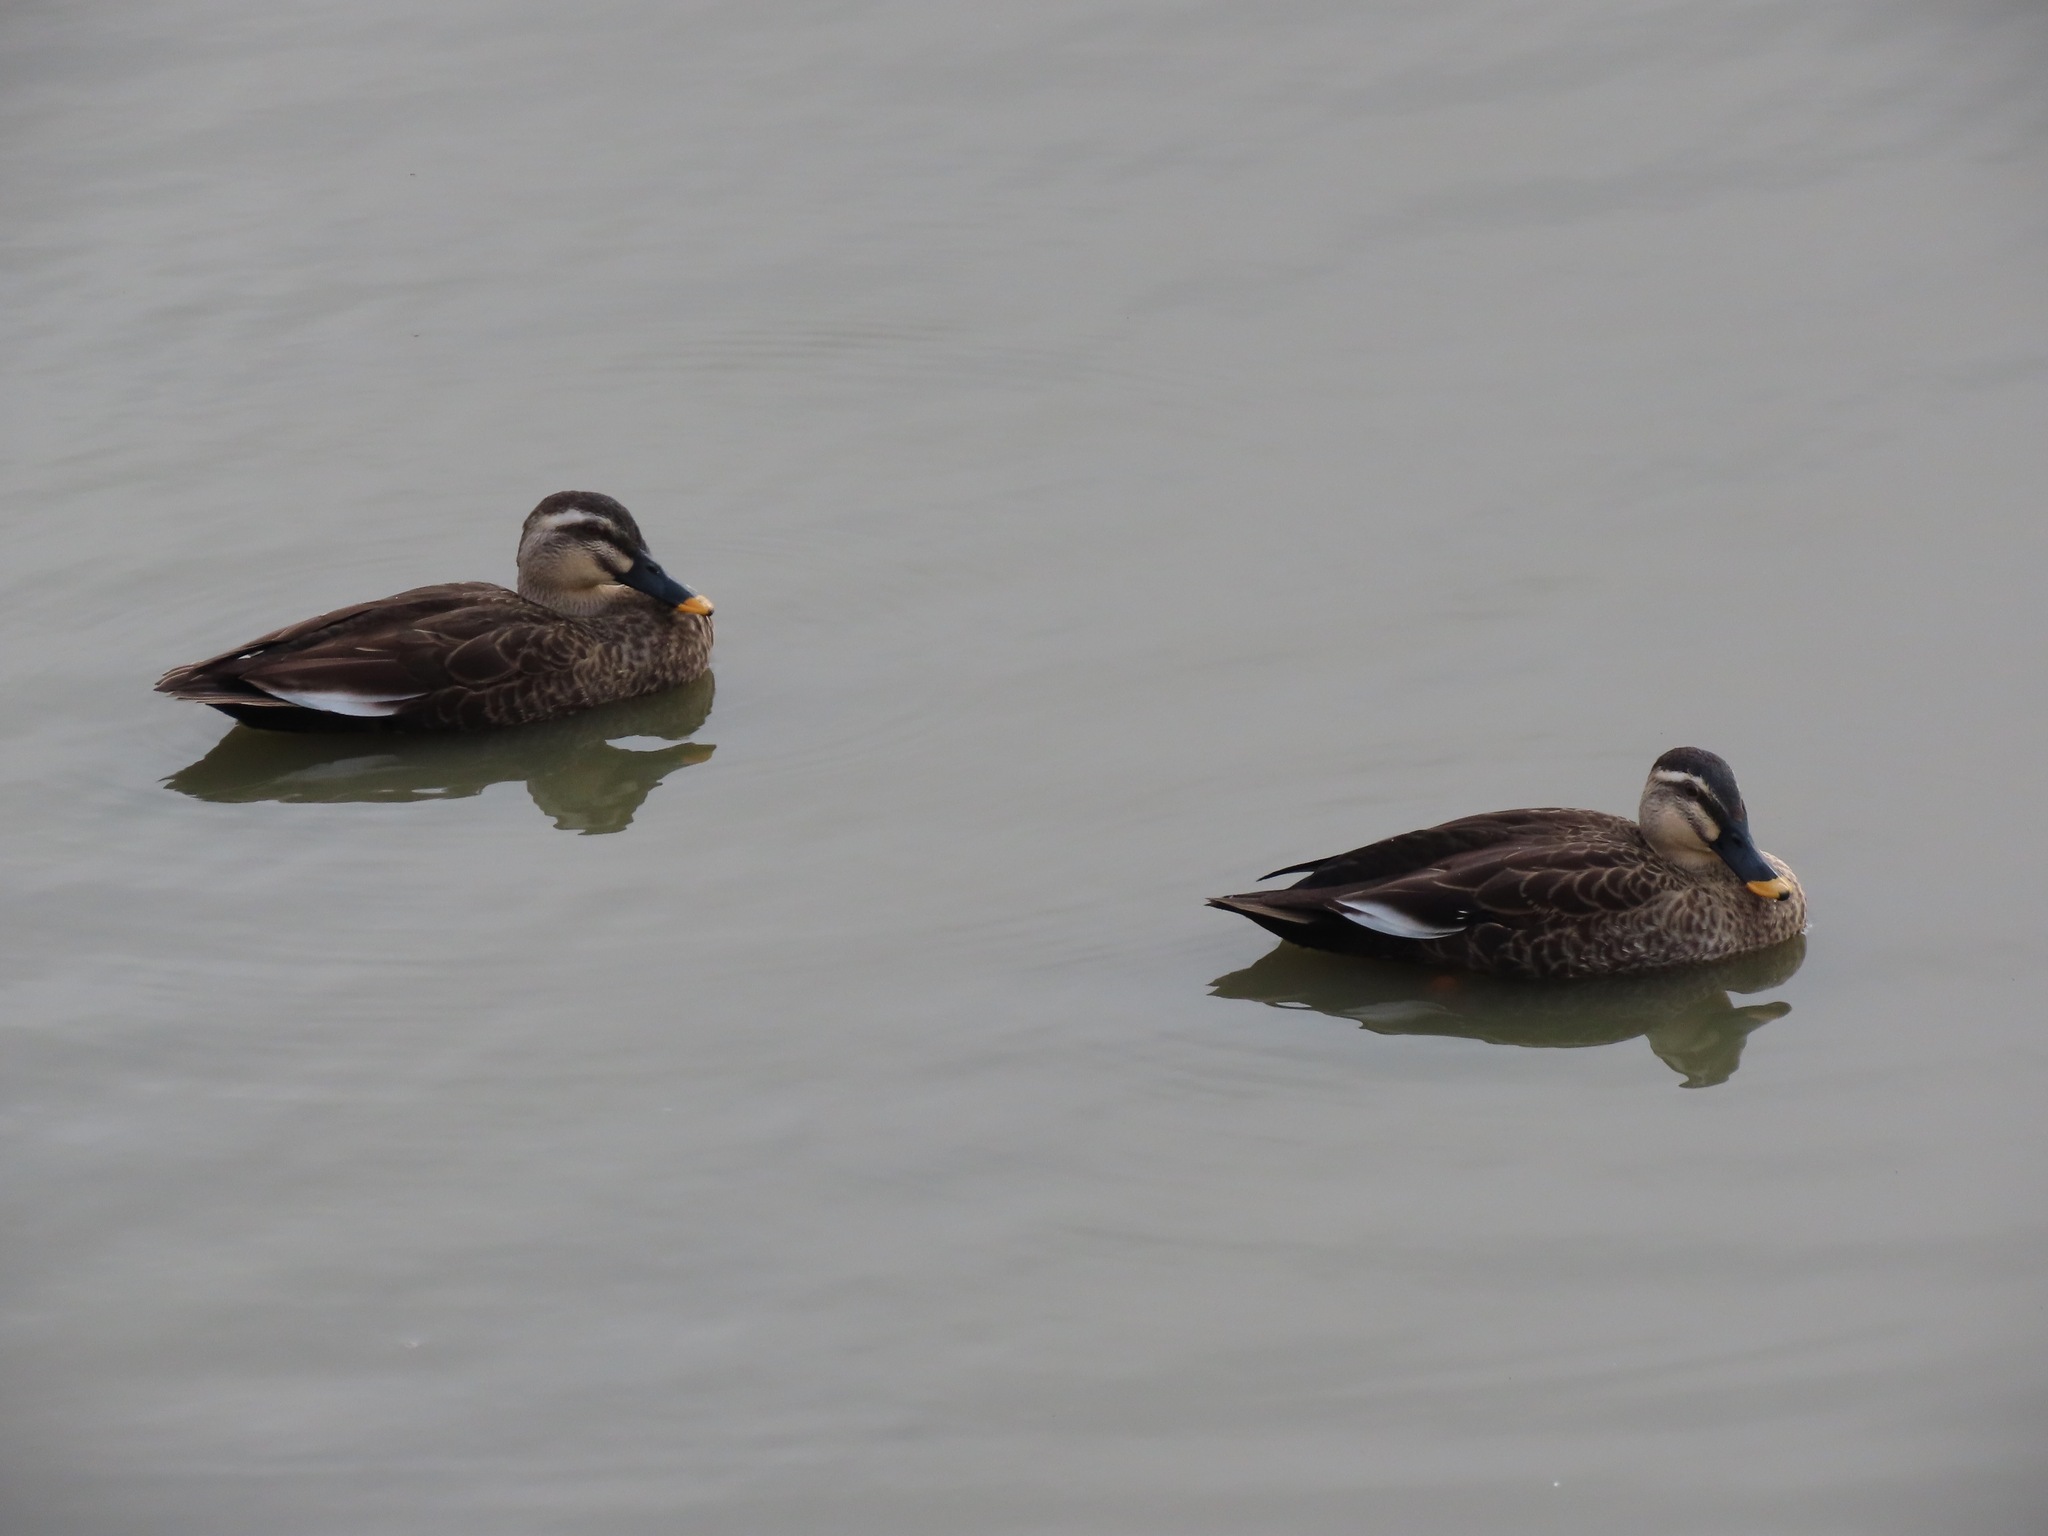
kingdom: Animalia
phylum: Chordata
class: Aves
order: Anseriformes
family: Anatidae
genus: Anas
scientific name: Anas zonorhyncha
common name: Eastern spot-billed duck
